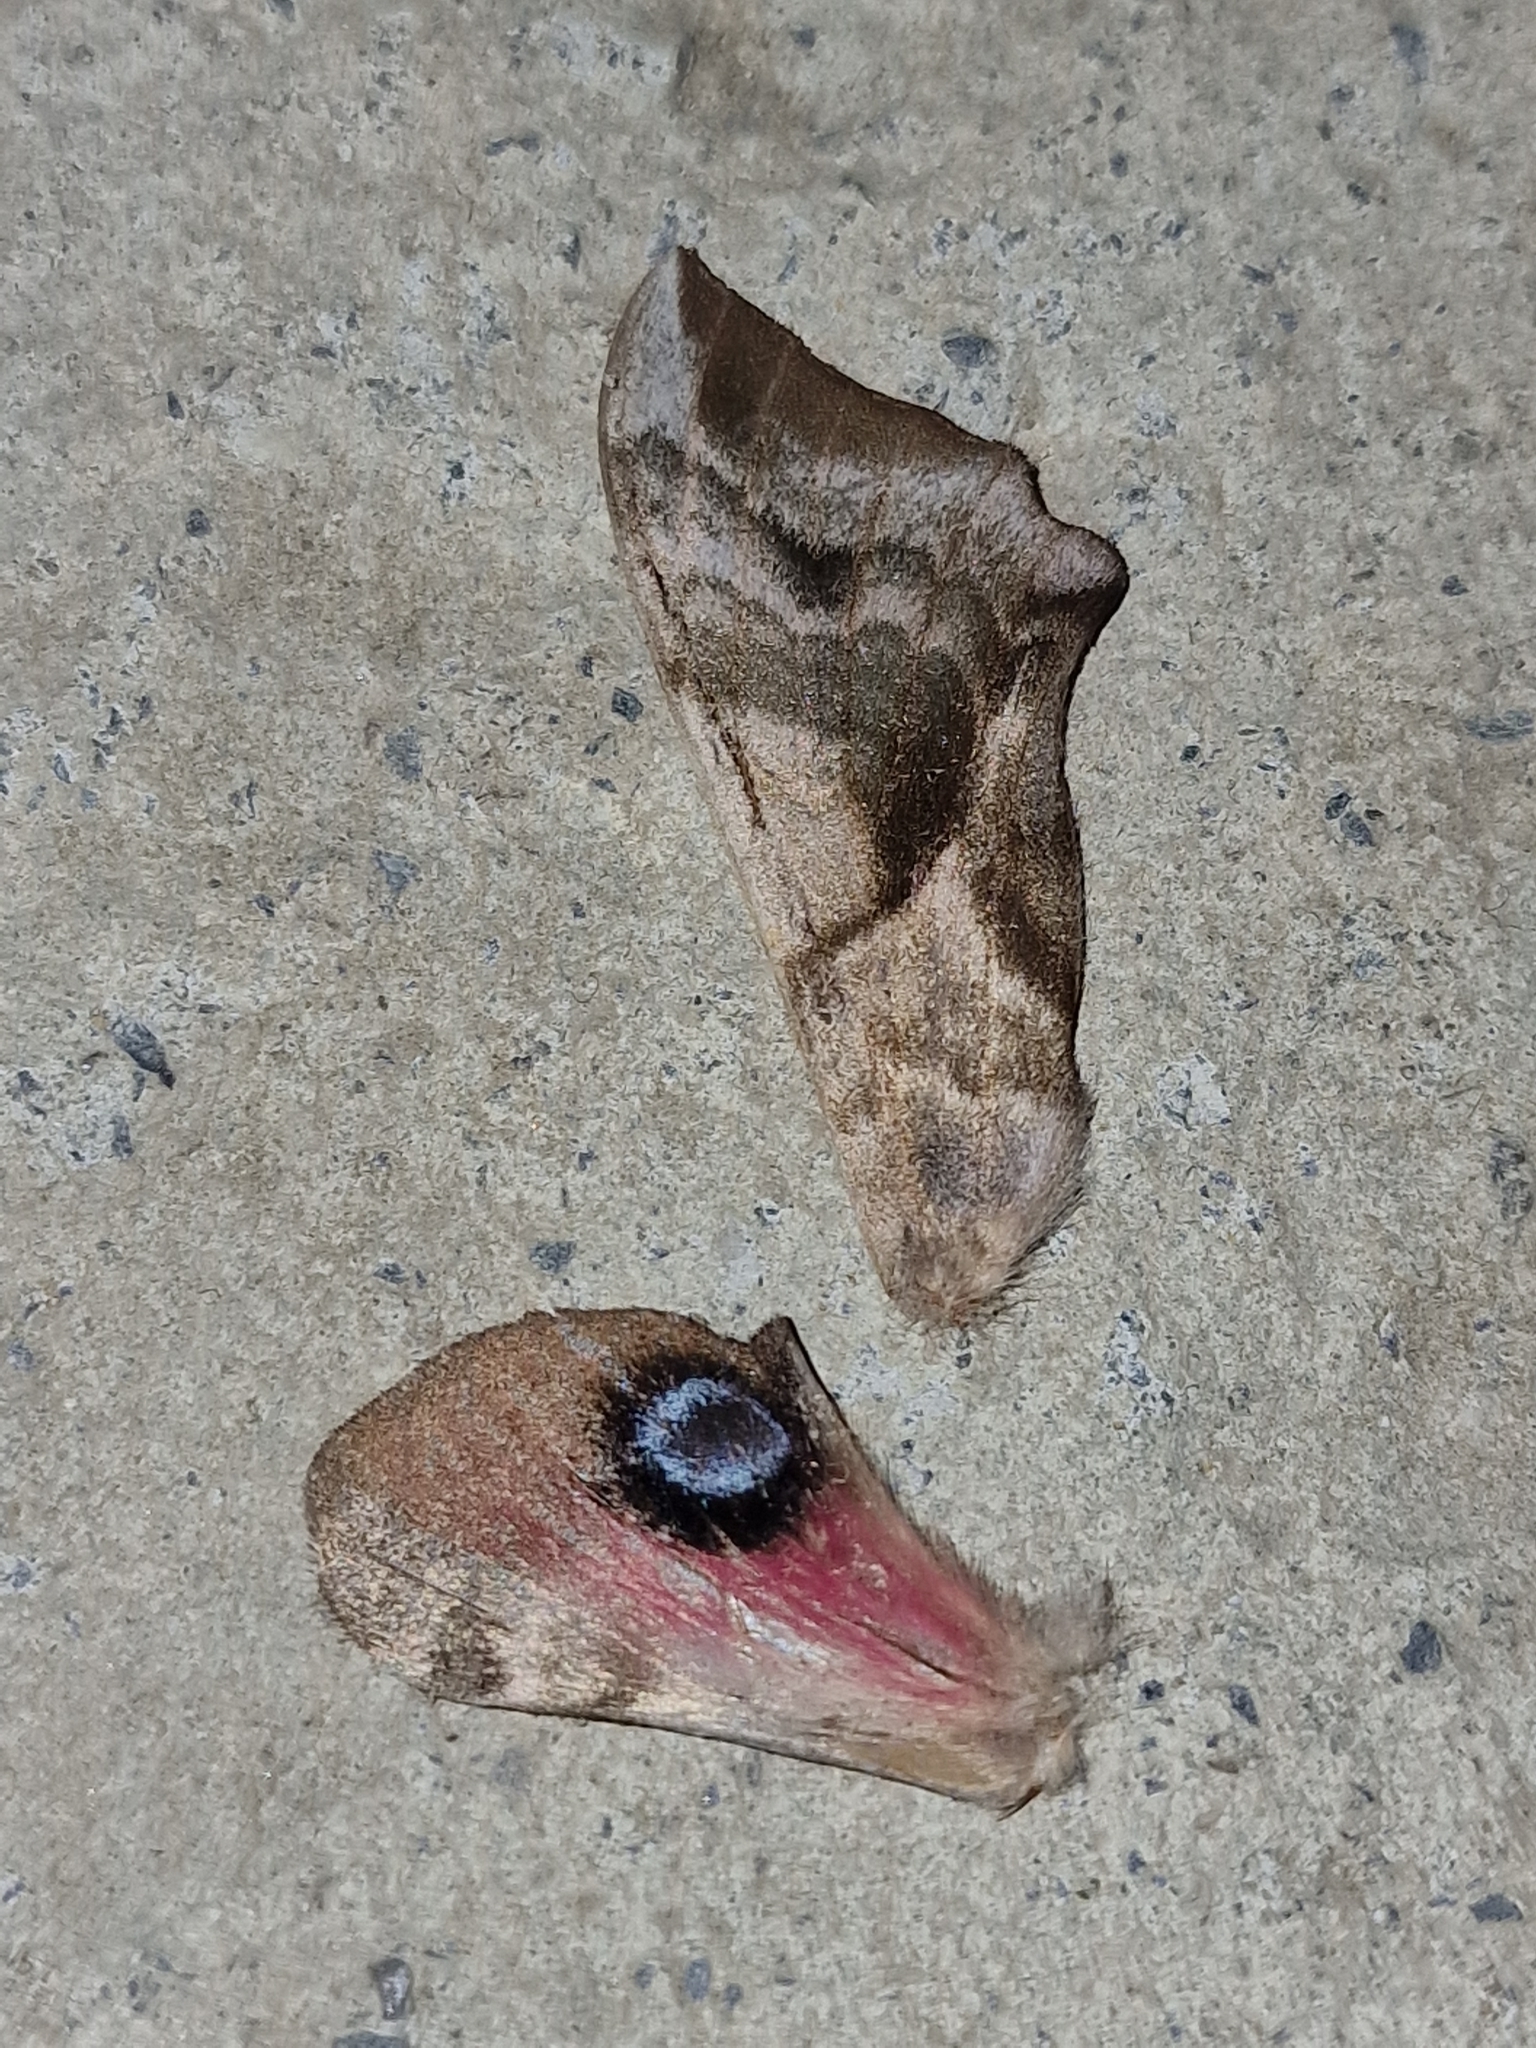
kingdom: Animalia
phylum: Arthropoda
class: Insecta
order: Lepidoptera
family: Sphingidae
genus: Smerinthus
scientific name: Smerinthus ocellata
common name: Eyed hawk-moth
